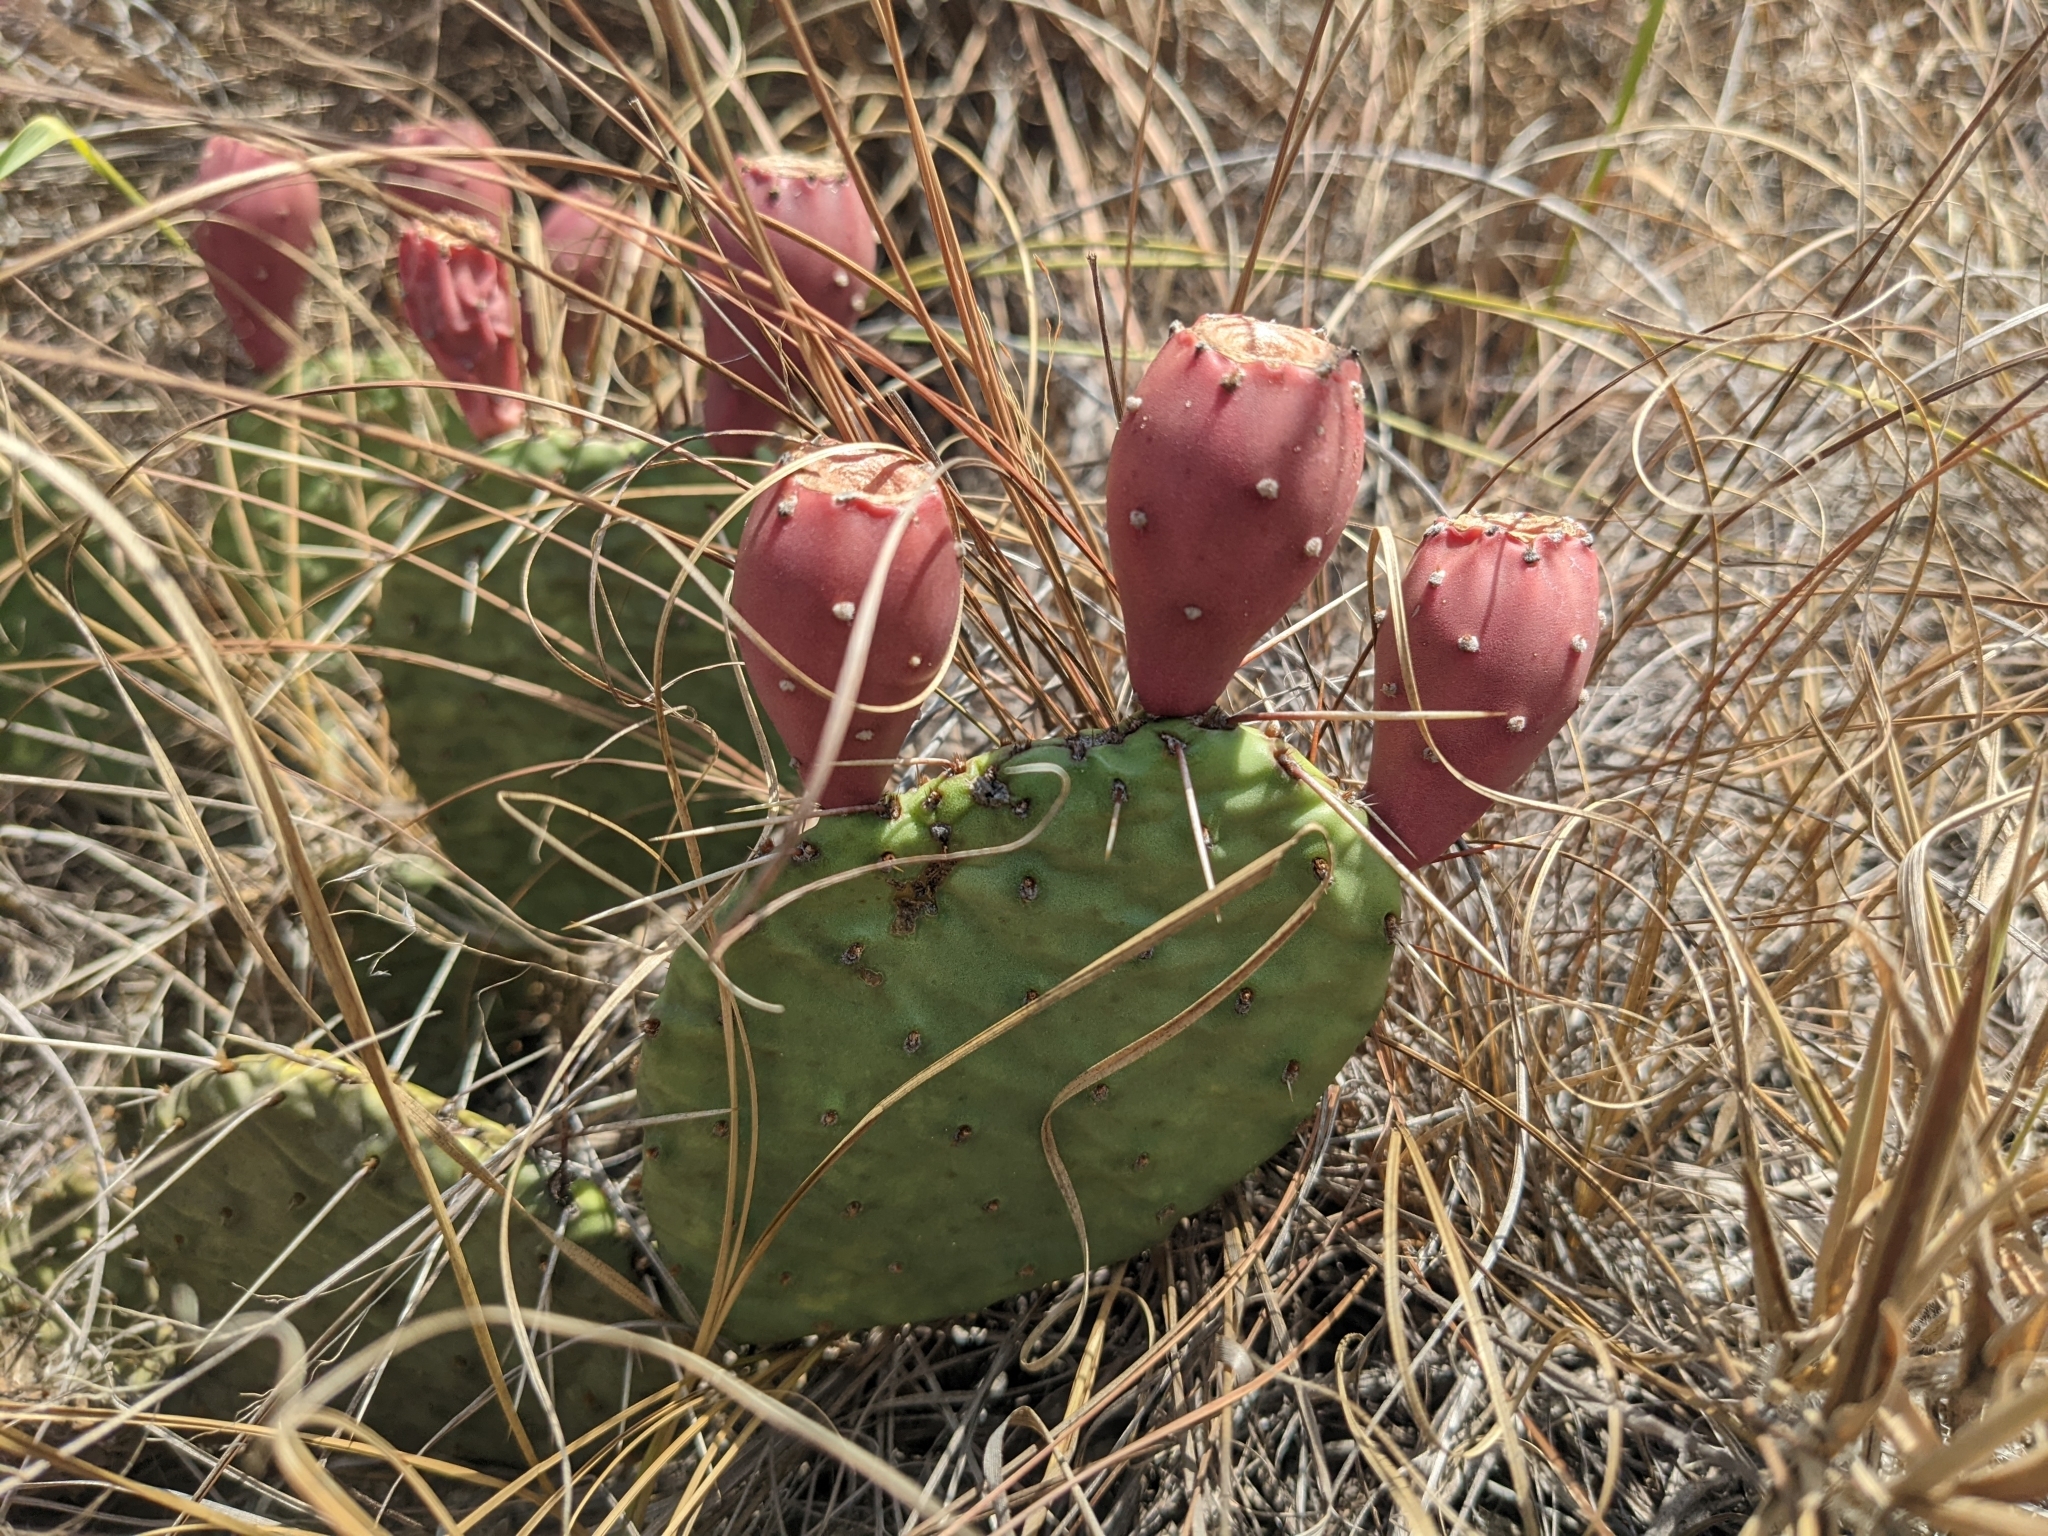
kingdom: Plantae
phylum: Tracheophyta
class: Magnoliopsida
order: Caryophyllales
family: Cactaceae
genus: Opuntia
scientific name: Opuntia macrorhiza
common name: Grassland pricklypear
